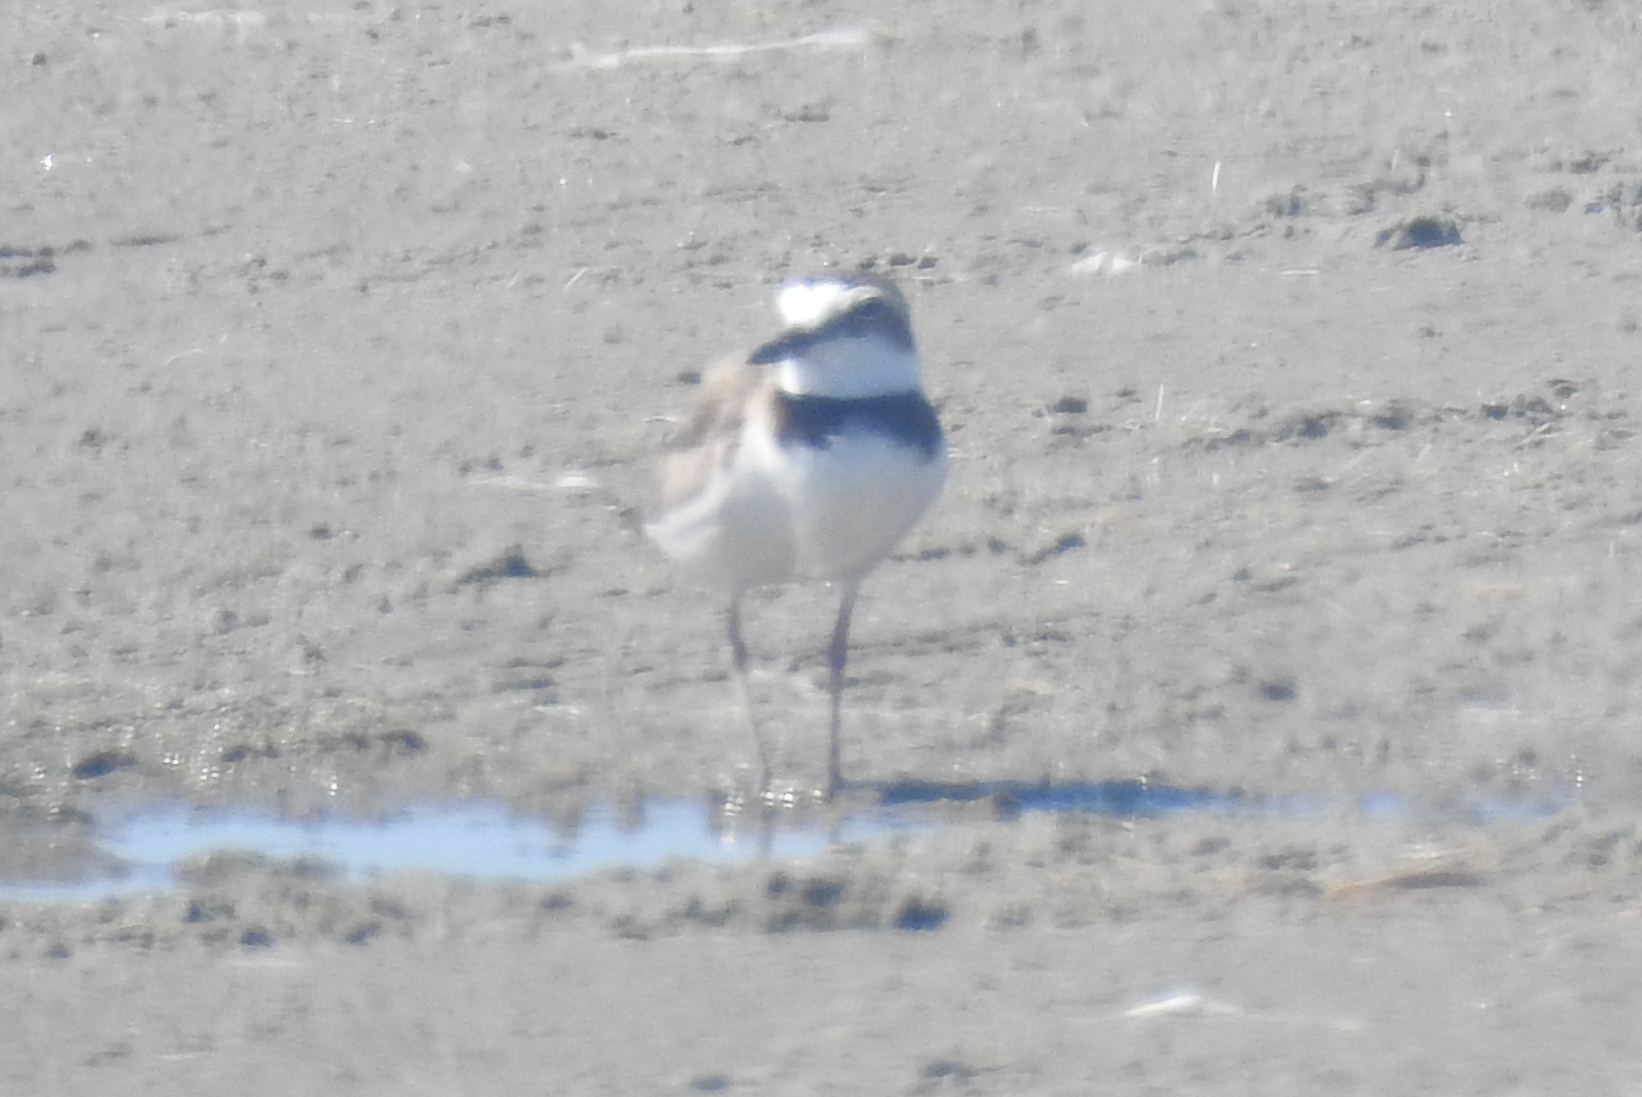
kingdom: Animalia
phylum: Chordata
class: Aves
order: Charadriiformes
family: Charadriidae
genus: Anarhynchus
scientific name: Anarhynchus
